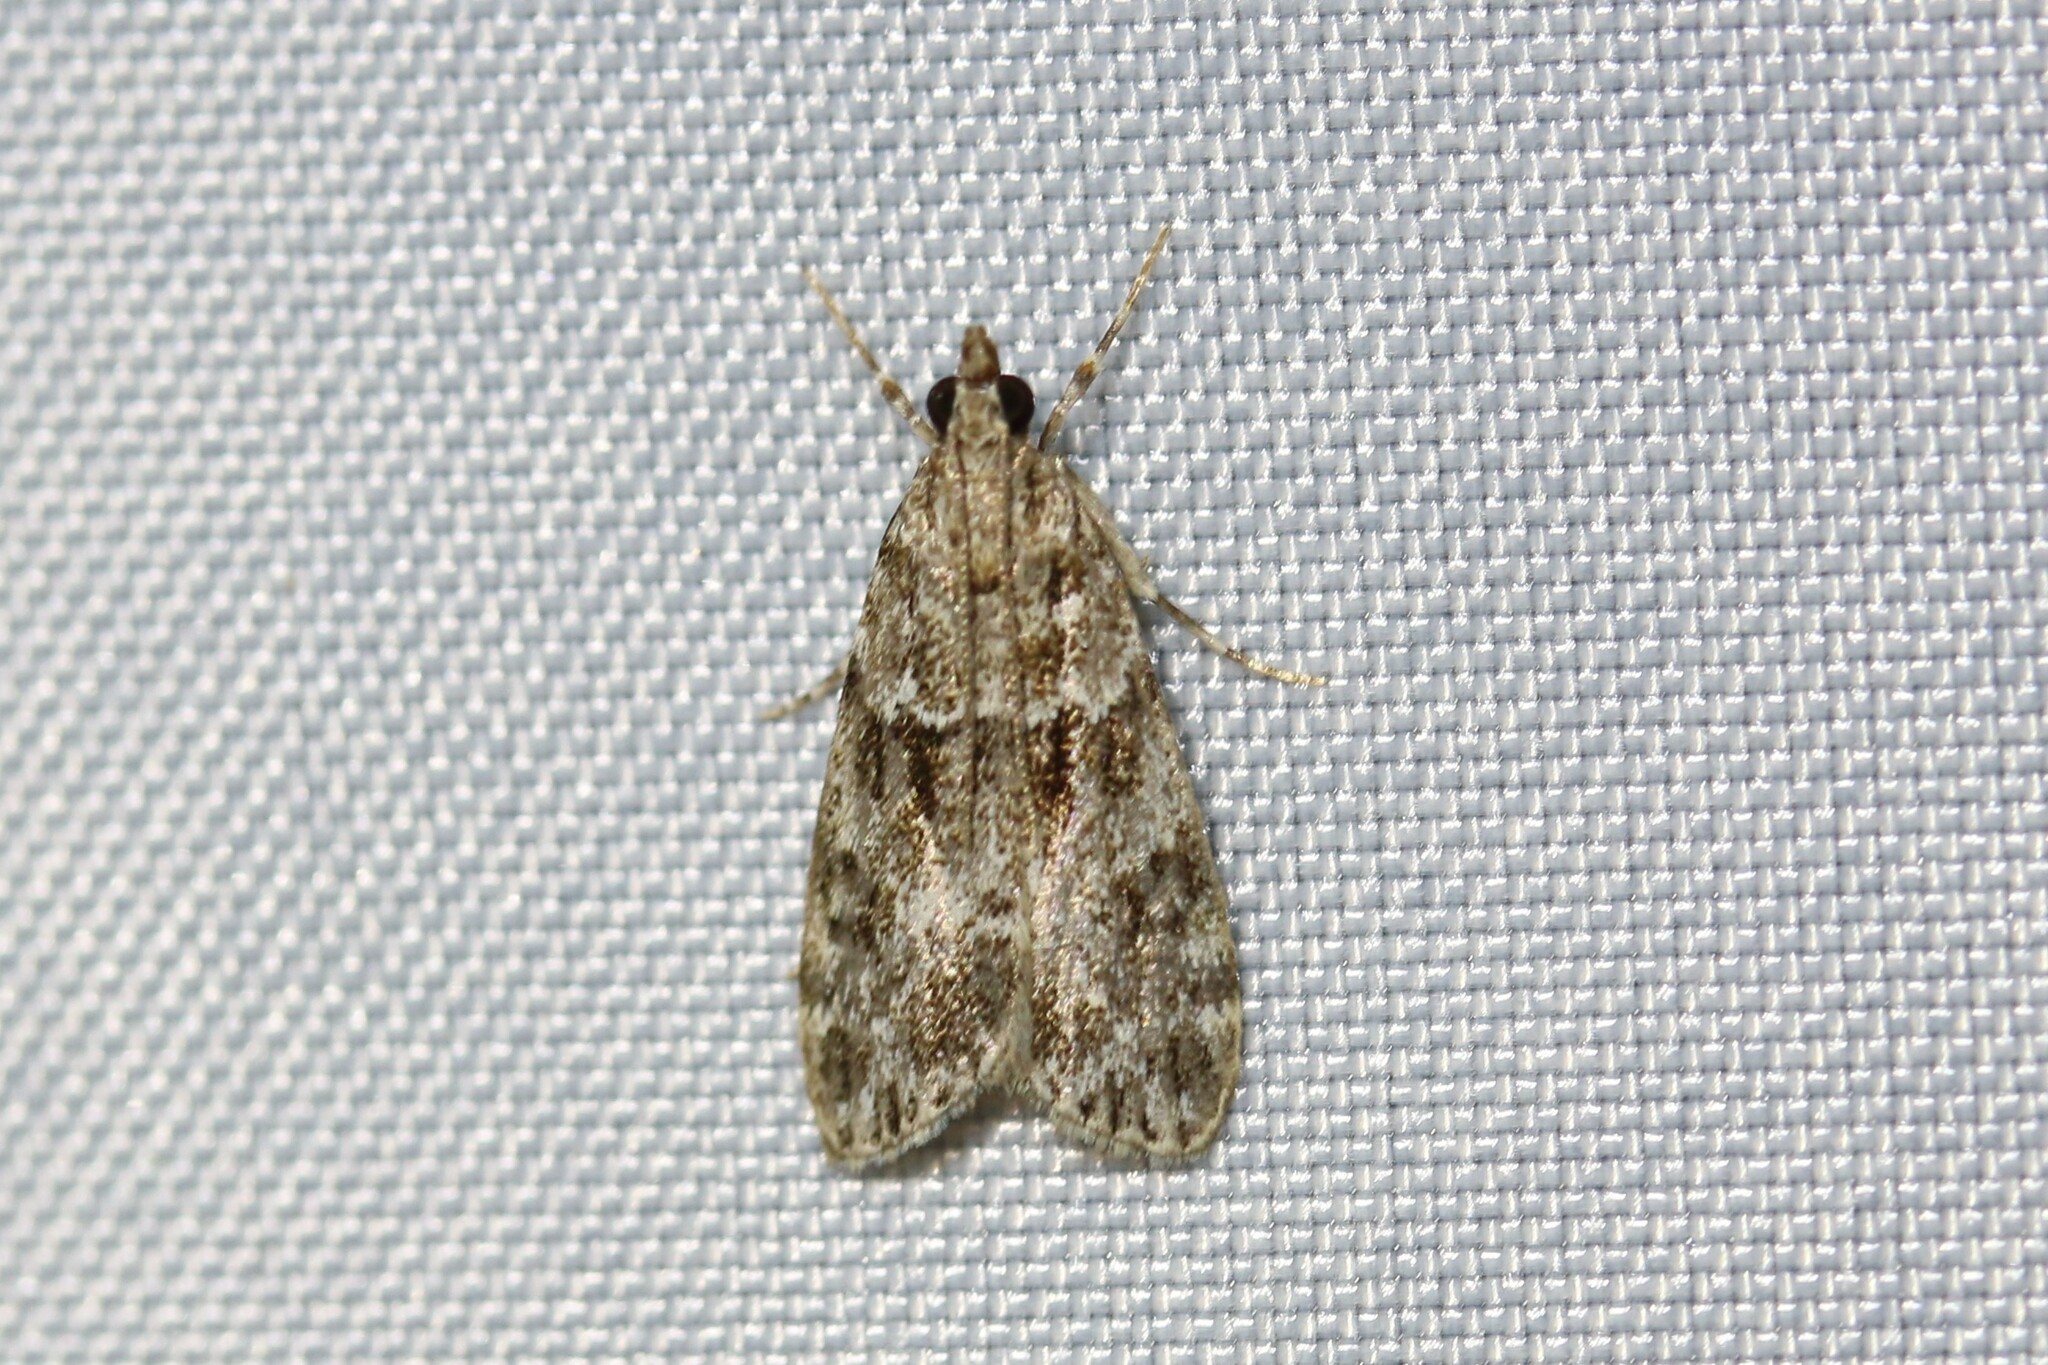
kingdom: Animalia
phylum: Arthropoda
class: Insecta
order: Lepidoptera
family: Crambidae
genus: Eudonia
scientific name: Eudonia mercurella
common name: Small grey
